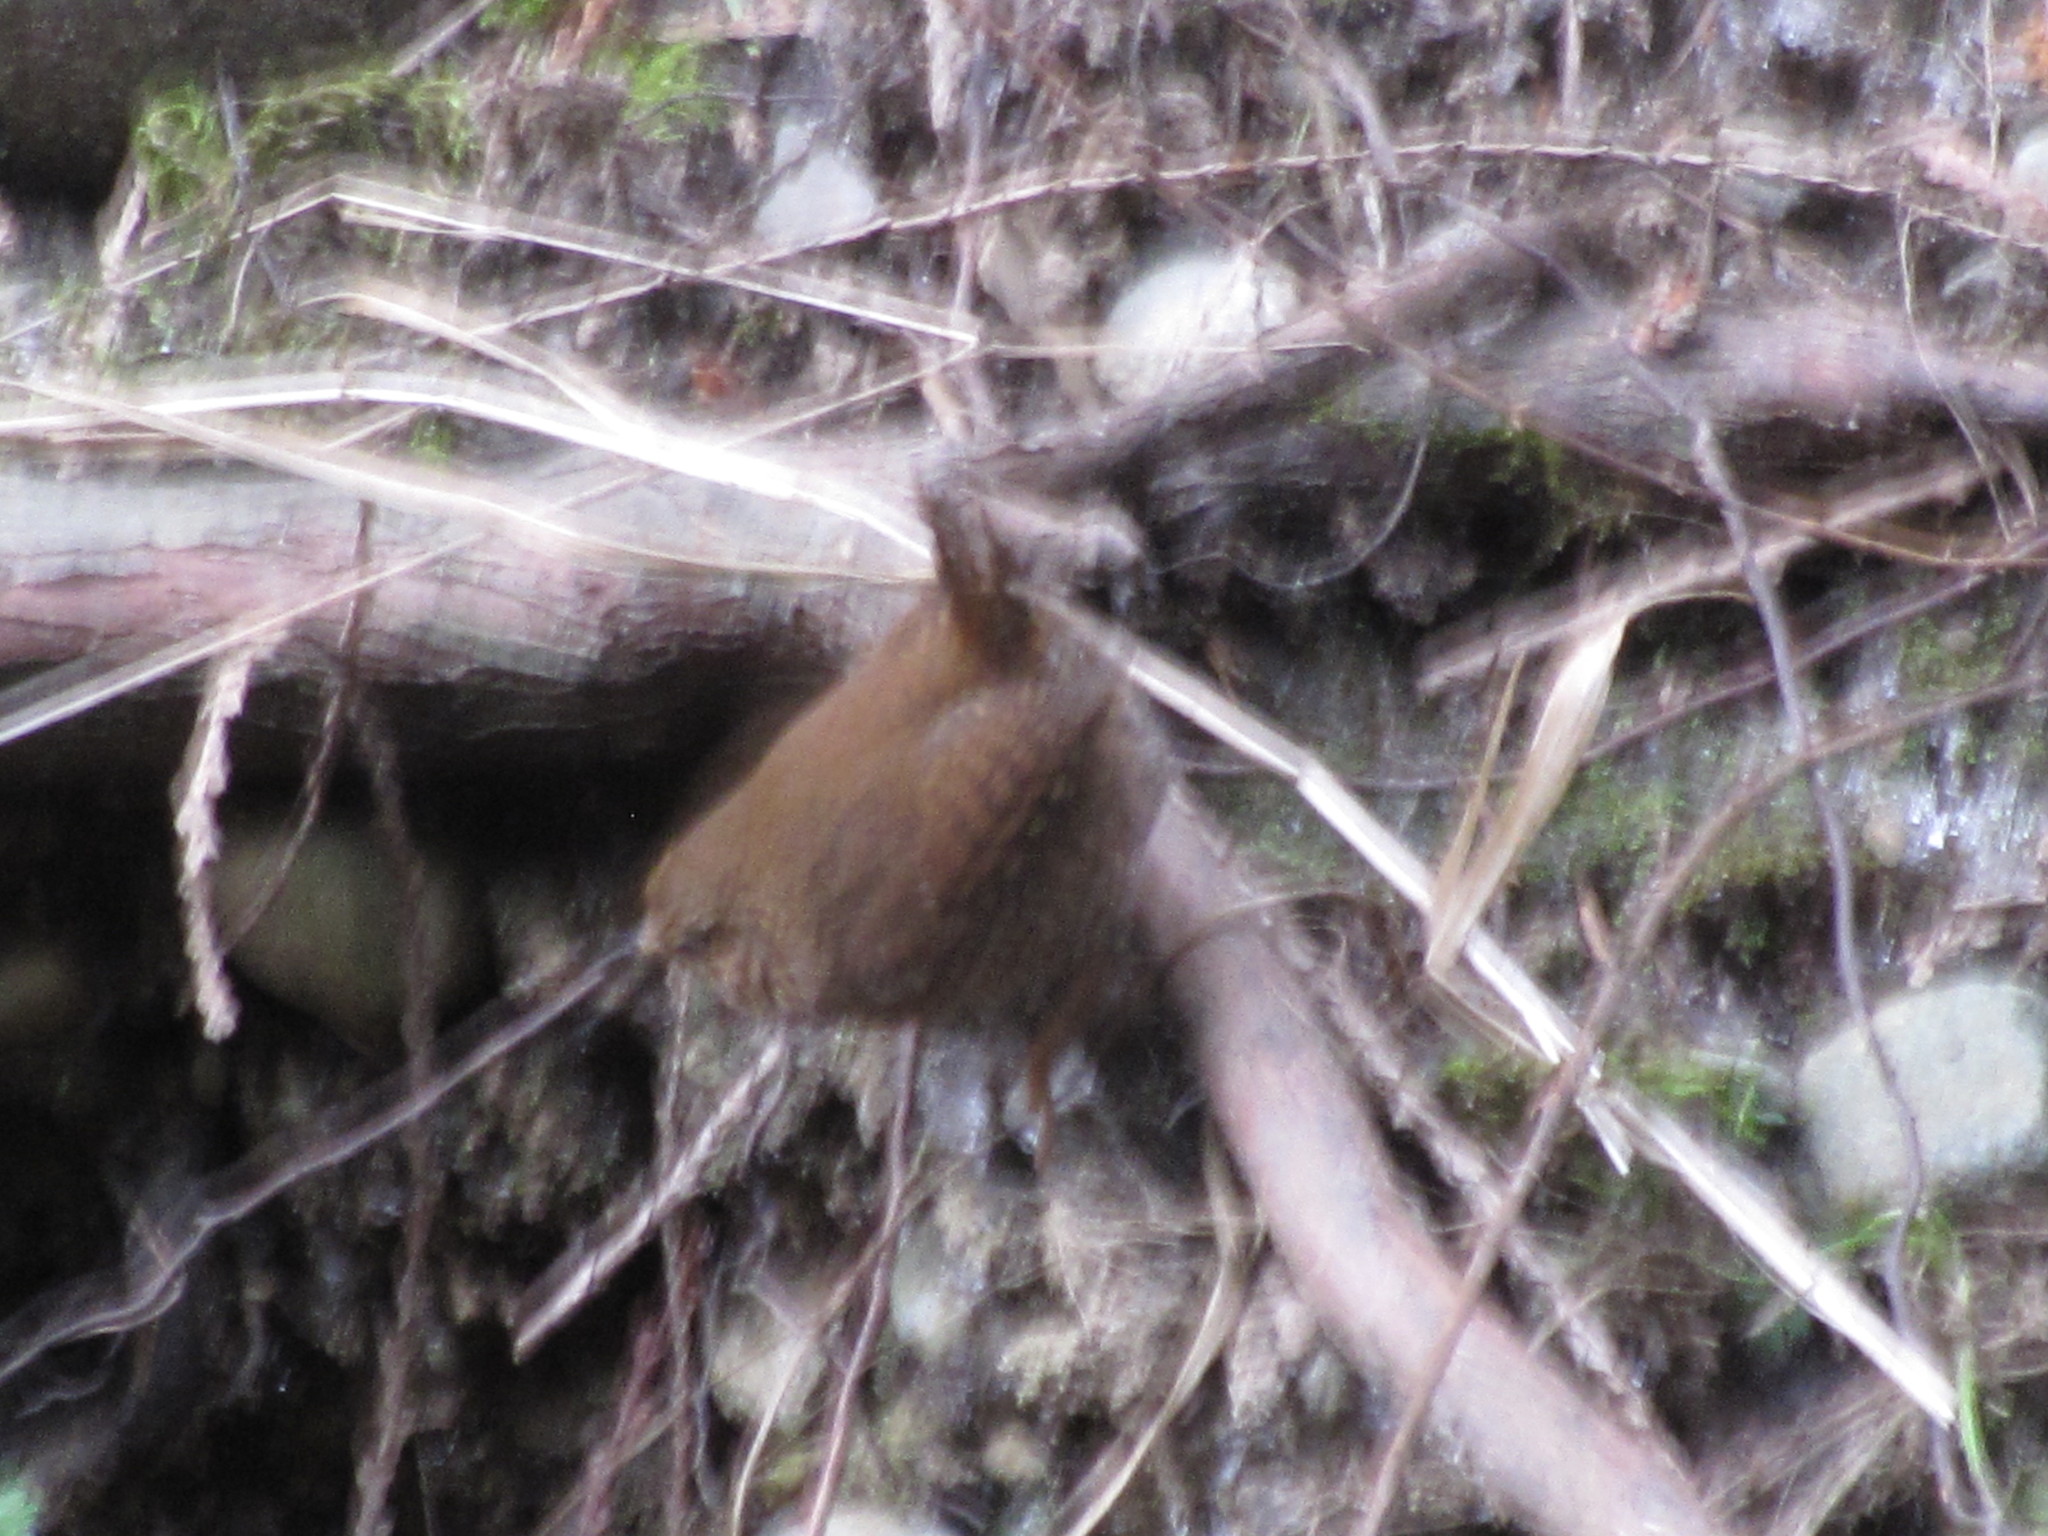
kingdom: Animalia
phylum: Chordata
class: Aves
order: Passeriformes
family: Troglodytidae
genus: Troglodytes
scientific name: Troglodytes pacificus
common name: Pacific wren
